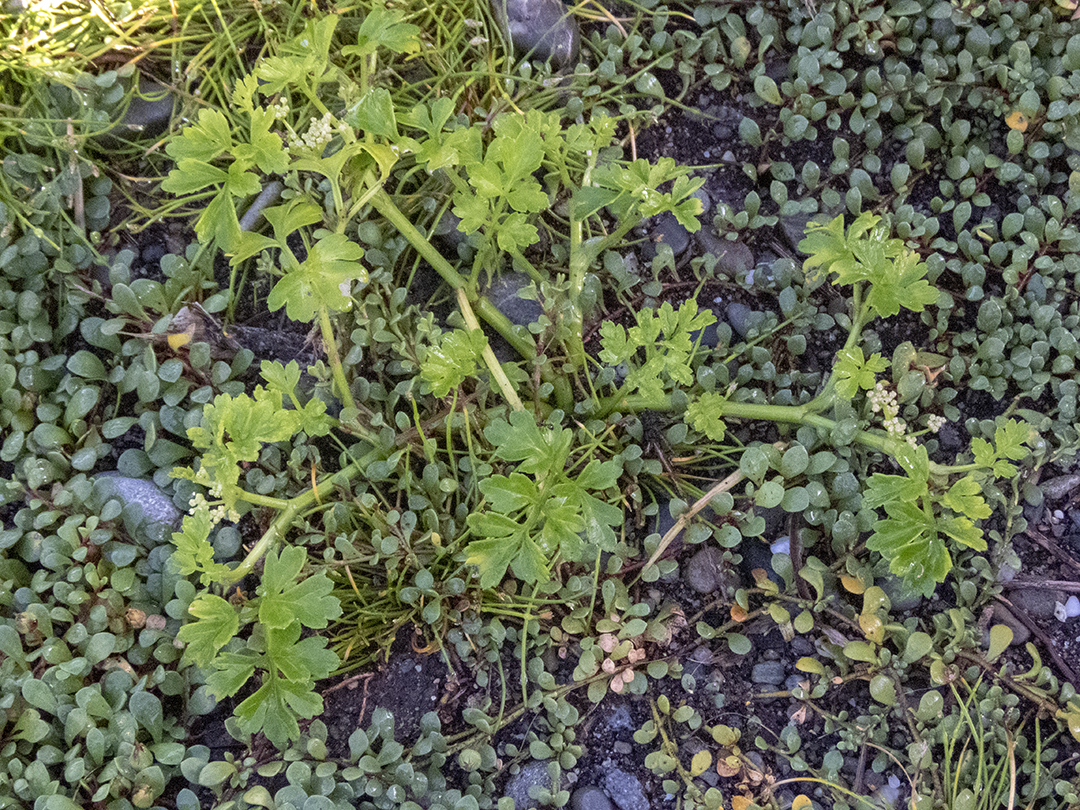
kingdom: Plantae
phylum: Tracheophyta
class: Magnoliopsida
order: Apiales
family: Apiaceae
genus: Apium
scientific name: Apium prostratum
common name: Prostrate marshwort
